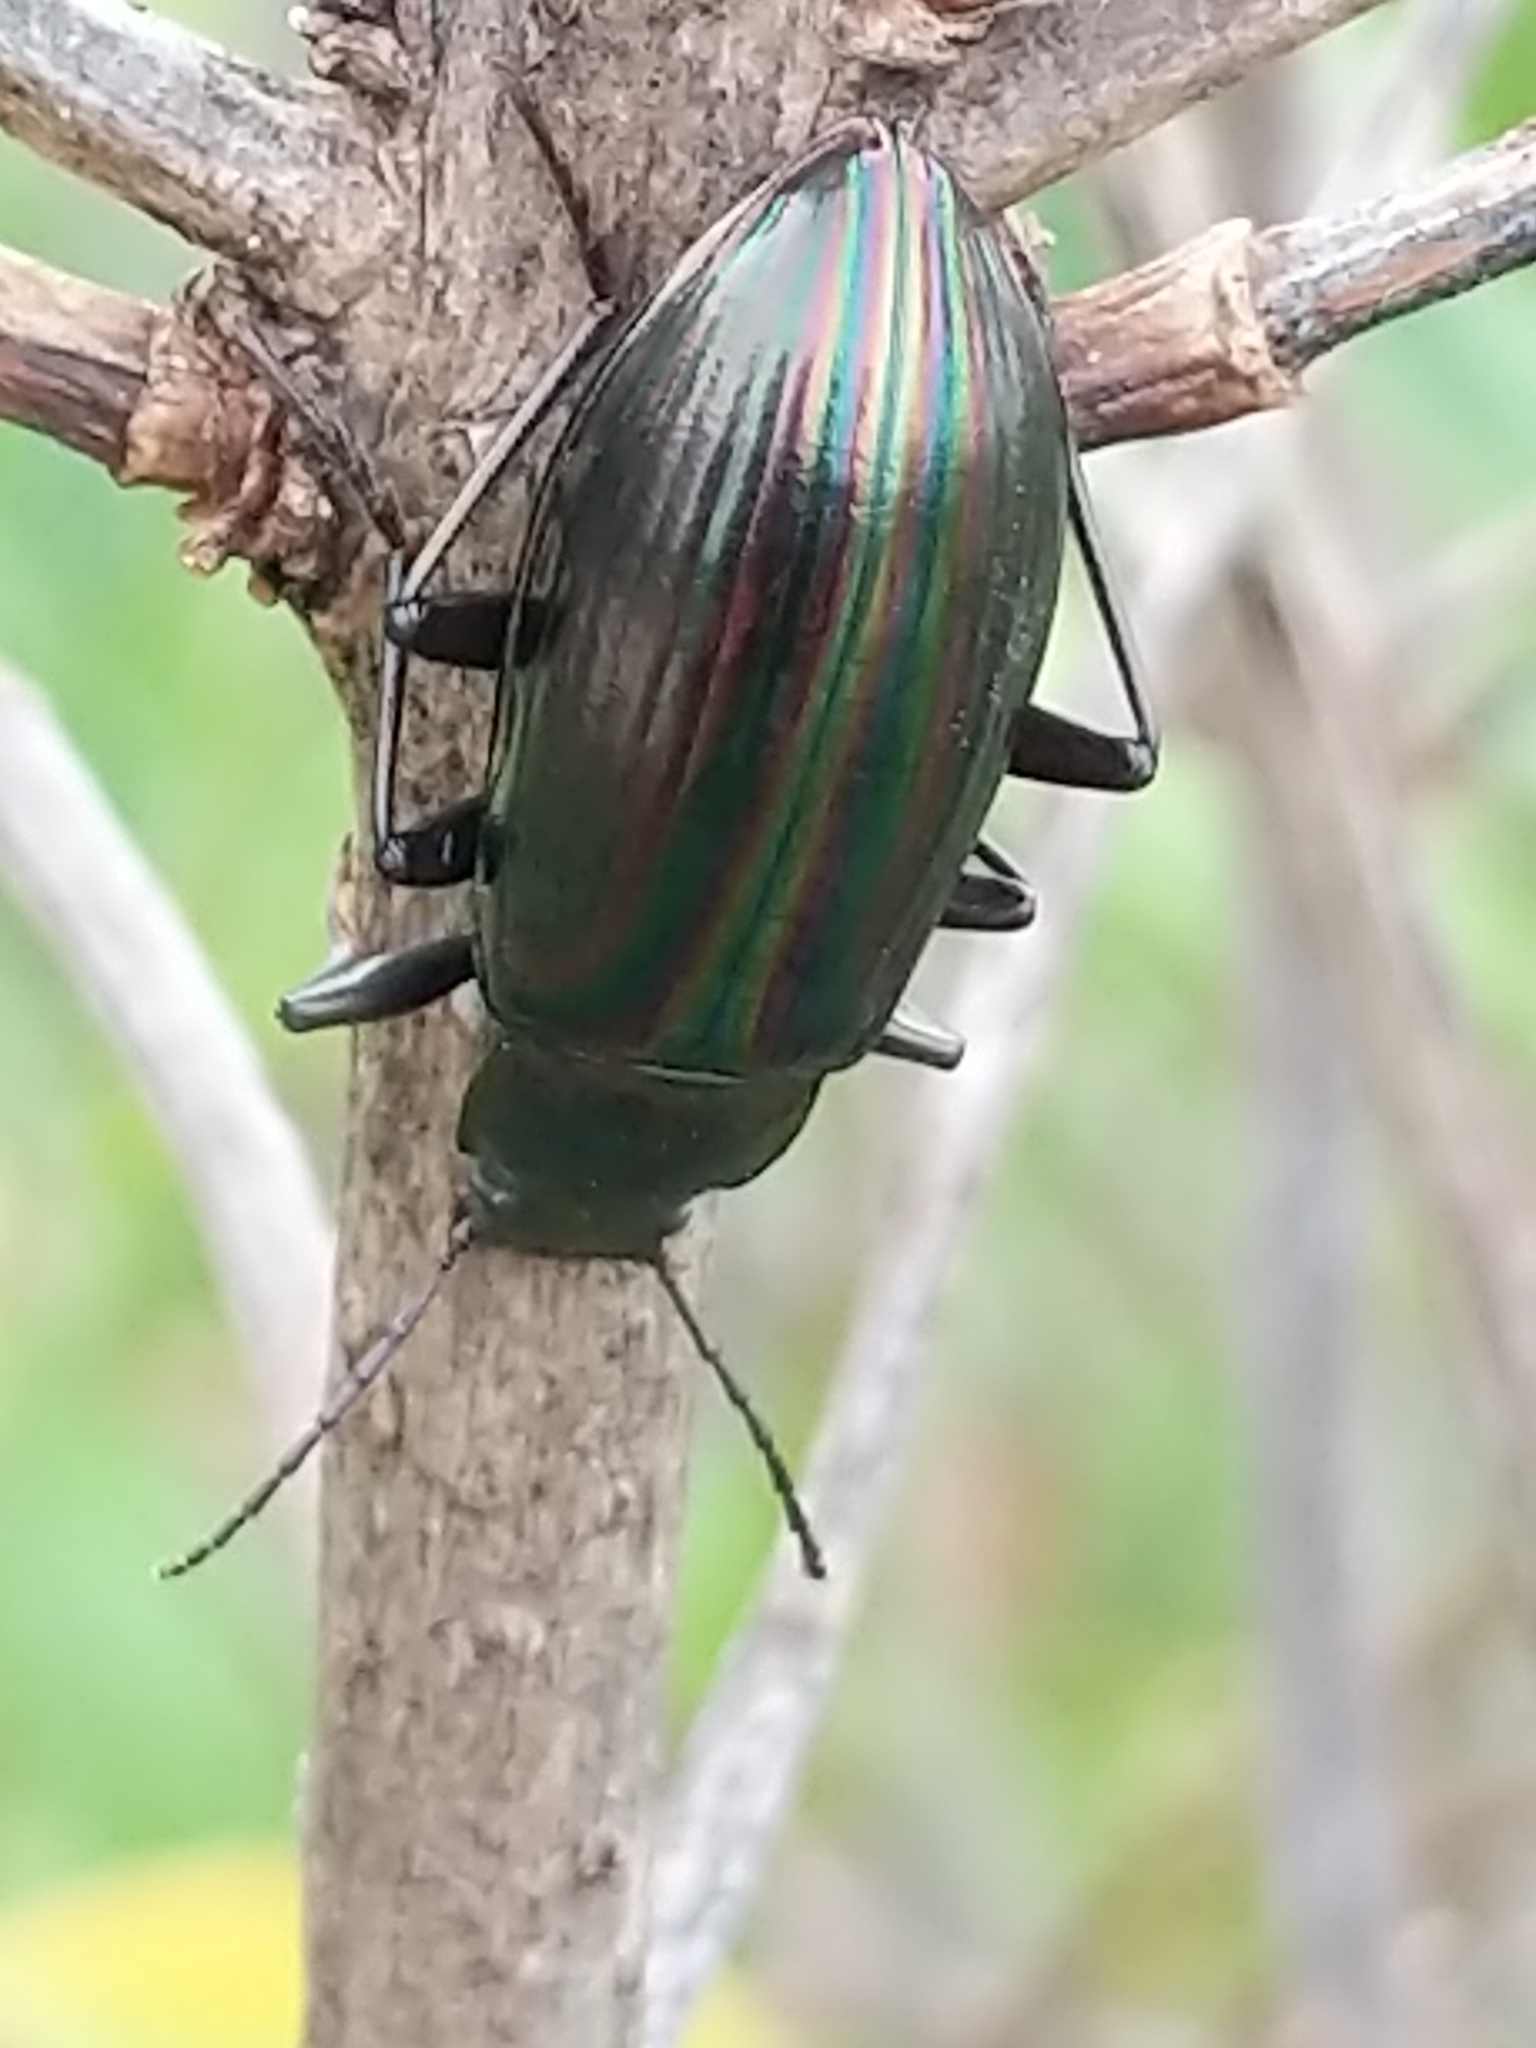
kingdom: Animalia
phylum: Arthropoda
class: Insecta
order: Coleoptera
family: Tenebrionidae
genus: Tarpela
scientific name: Tarpela micans
